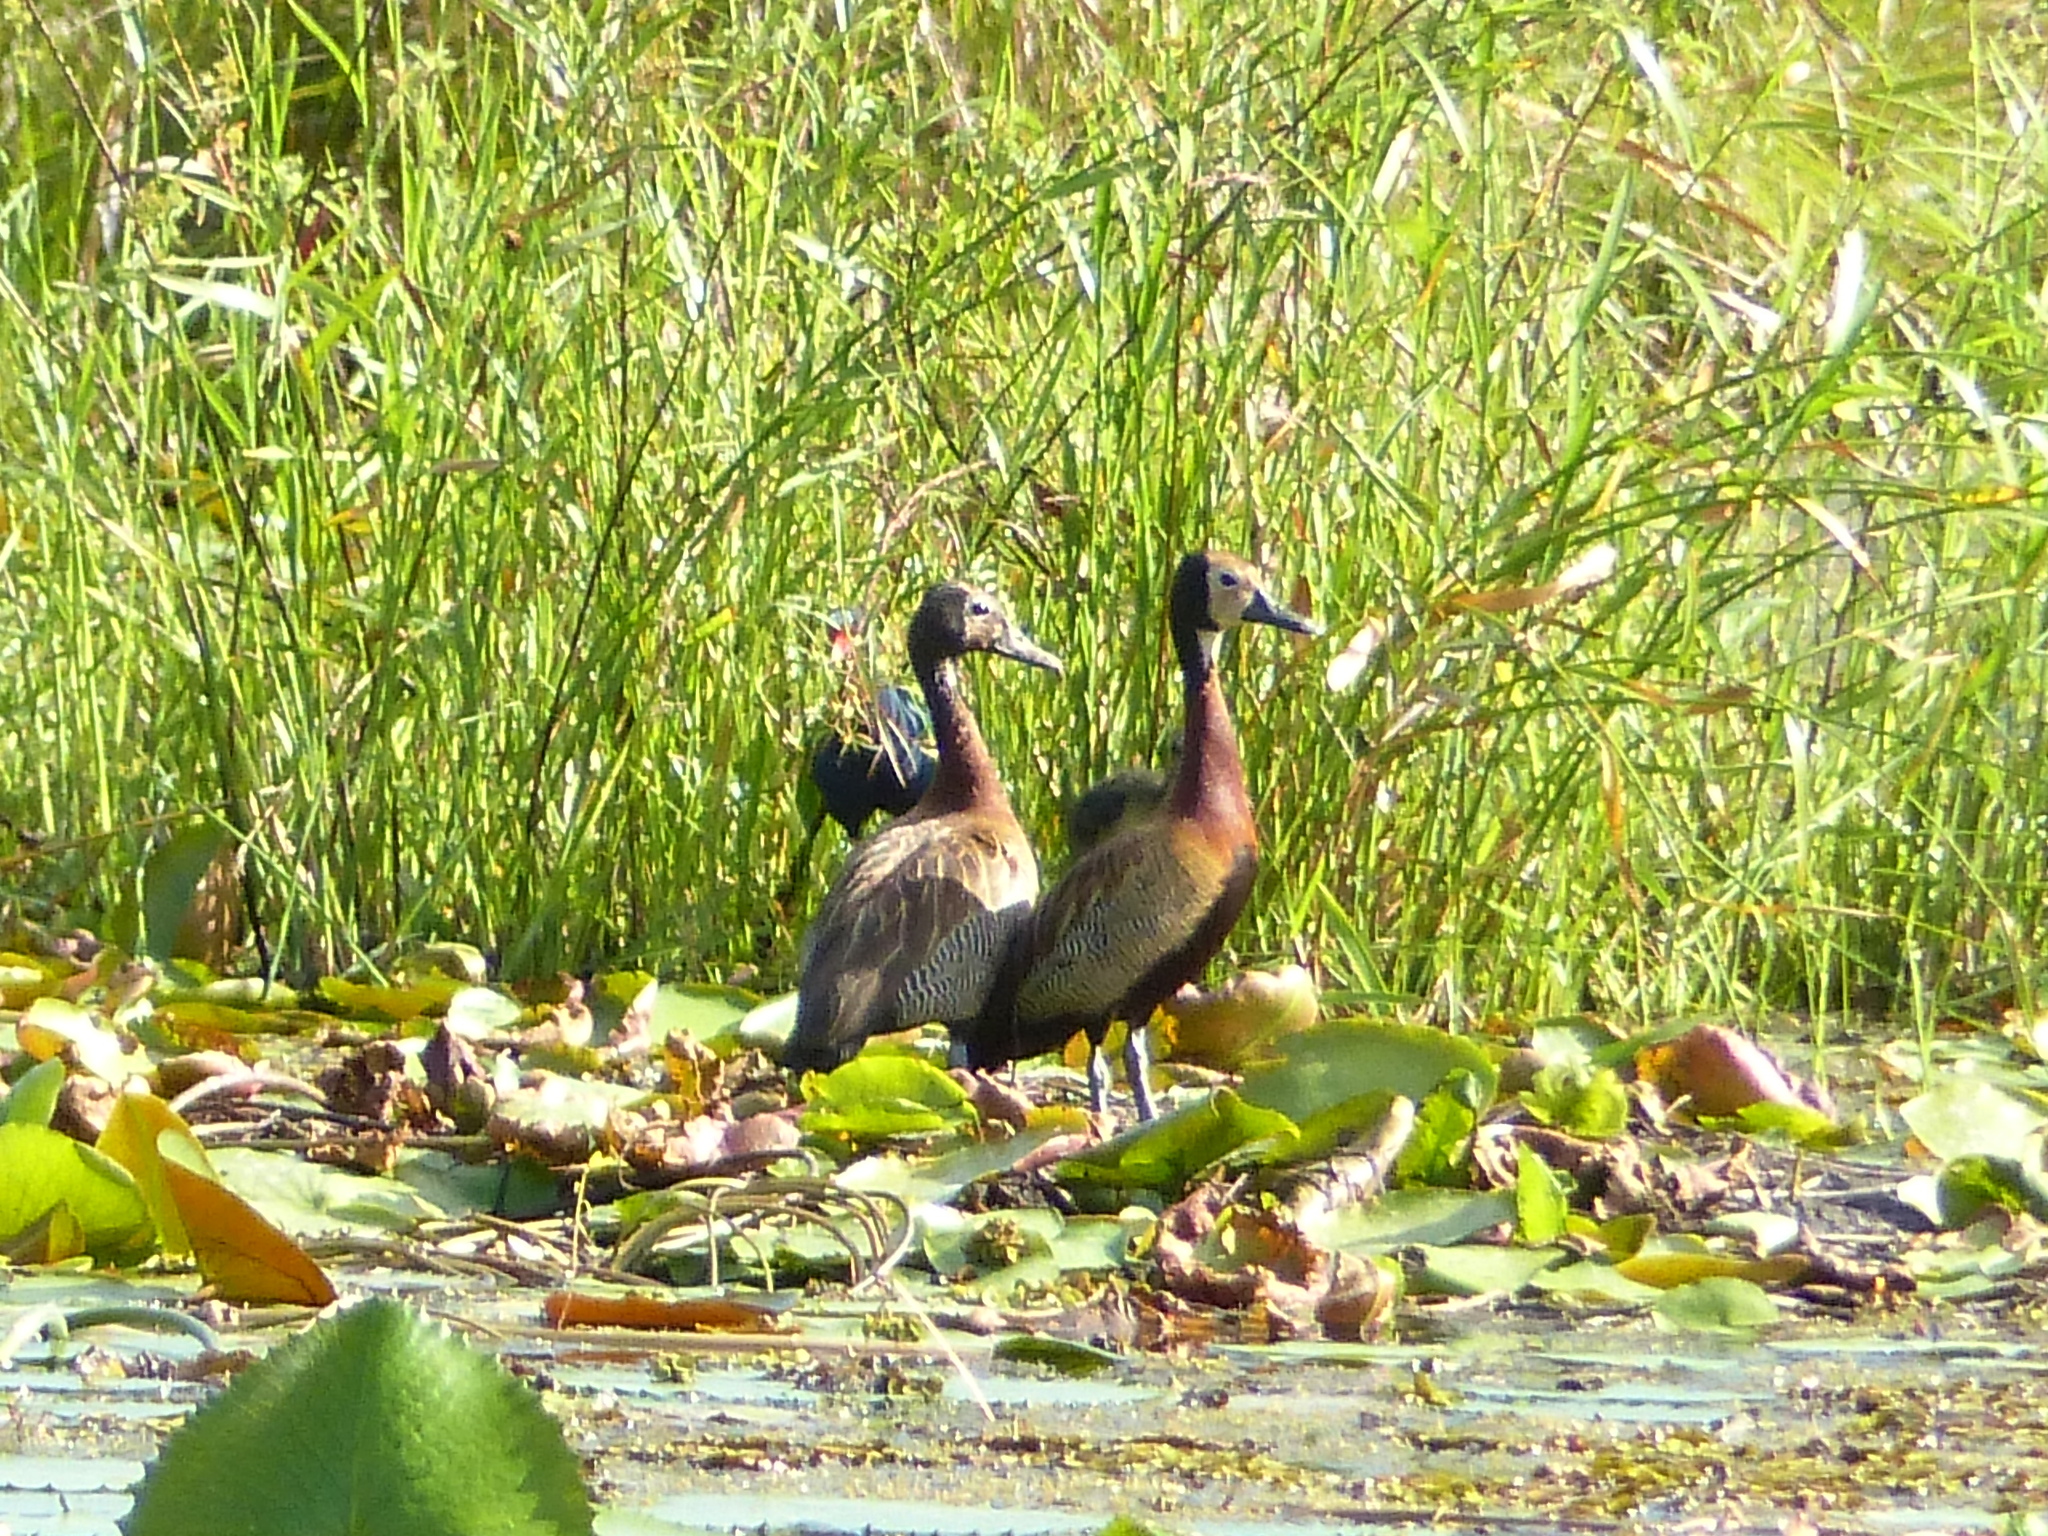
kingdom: Animalia
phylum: Chordata
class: Aves
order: Anseriformes
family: Anatidae
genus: Dendrocygna
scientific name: Dendrocygna viduata
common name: White-faced whistling duck
